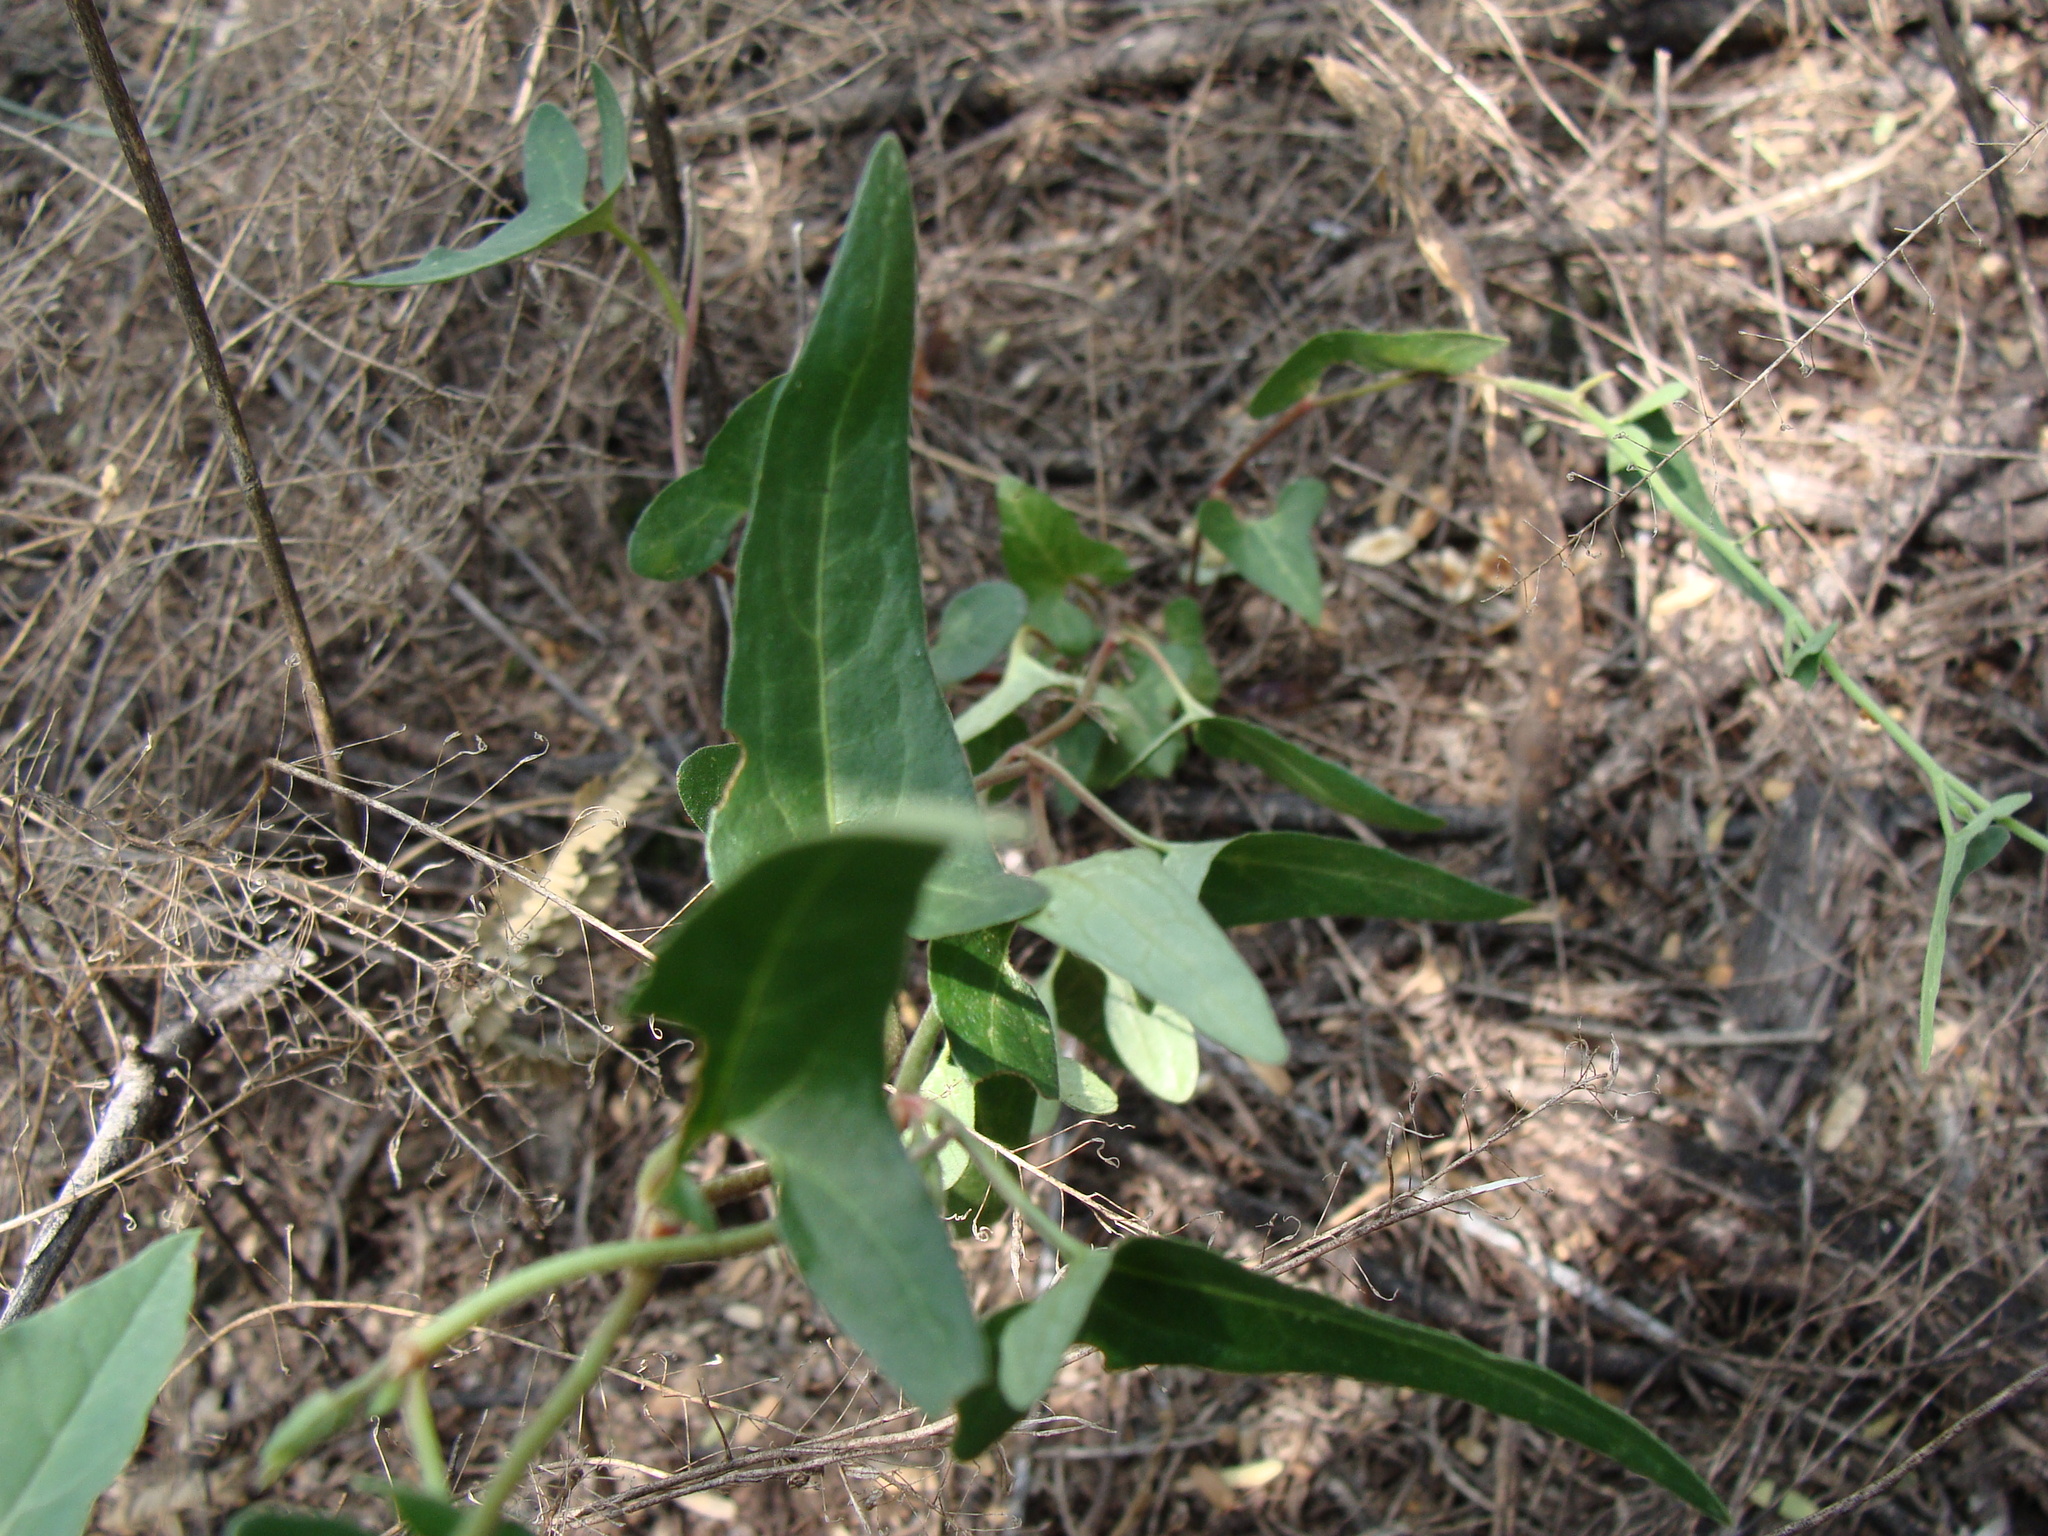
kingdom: Plantae
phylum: Tracheophyta
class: Magnoliopsida
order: Piperales
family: Aristolochiaceae
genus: Aristolochia
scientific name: Aristolochia watsonii
